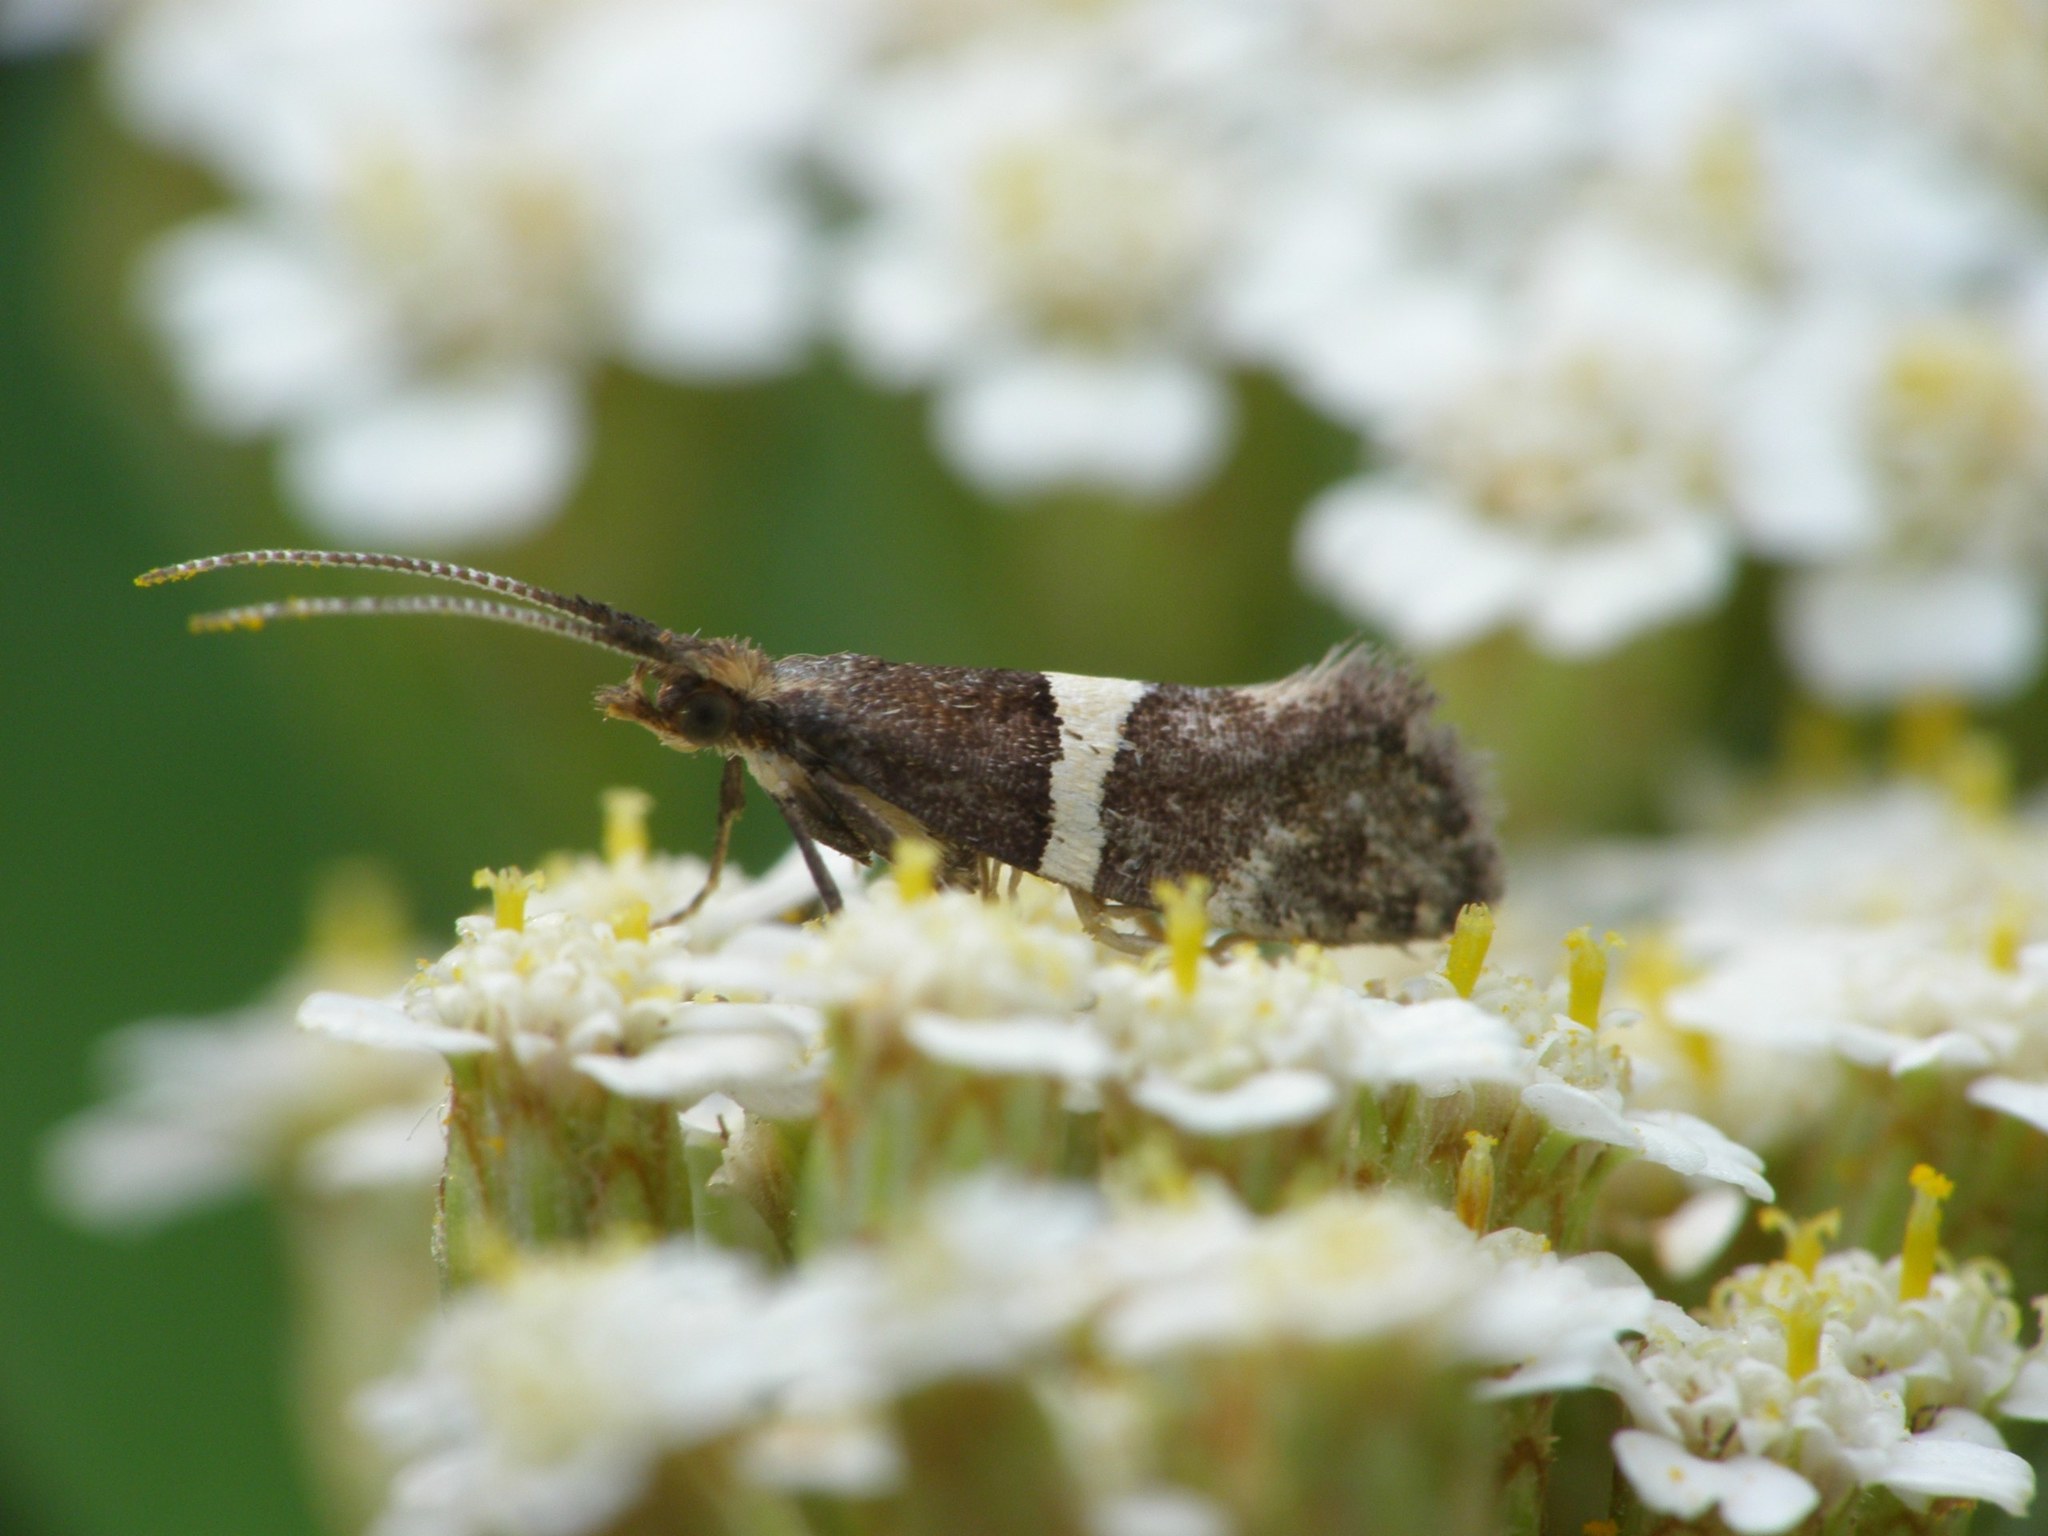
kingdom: Animalia
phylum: Arthropoda
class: Insecta
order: Lepidoptera
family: Plutellidae
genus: Eidophasia
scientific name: Eidophasia messingiella
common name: Bitter-cress smudge
